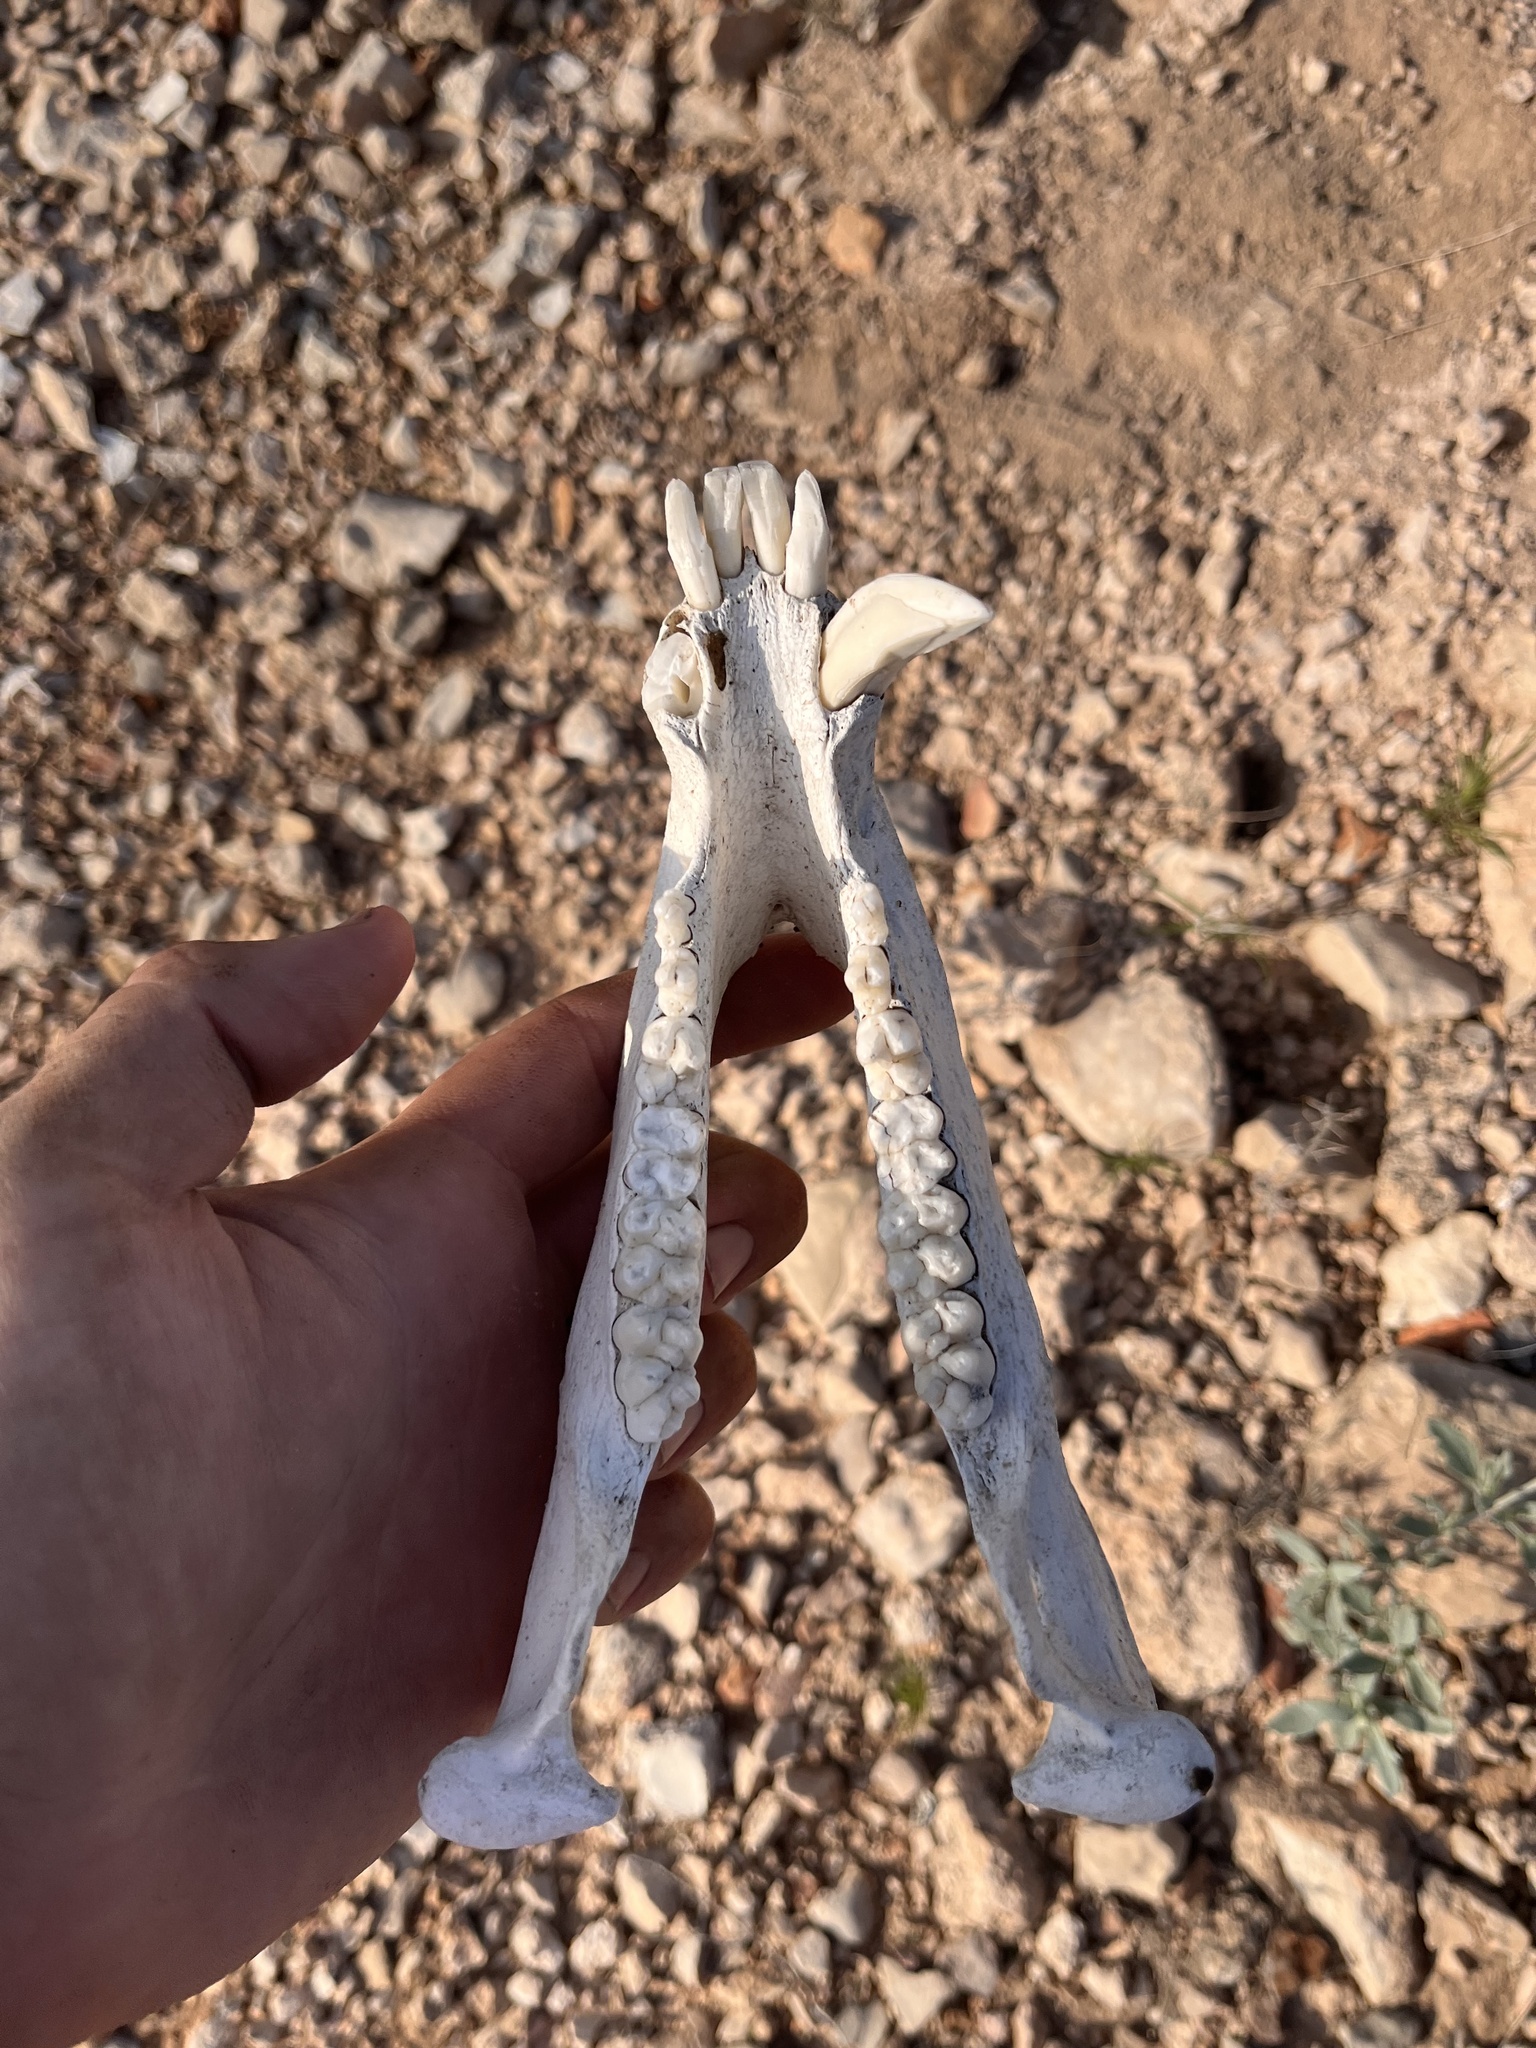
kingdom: Animalia
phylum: Chordata
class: Mammalia
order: Artiodactyla
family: Tayassuidae
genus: Pecari
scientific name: Pecari tajacu
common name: Collared peccary
